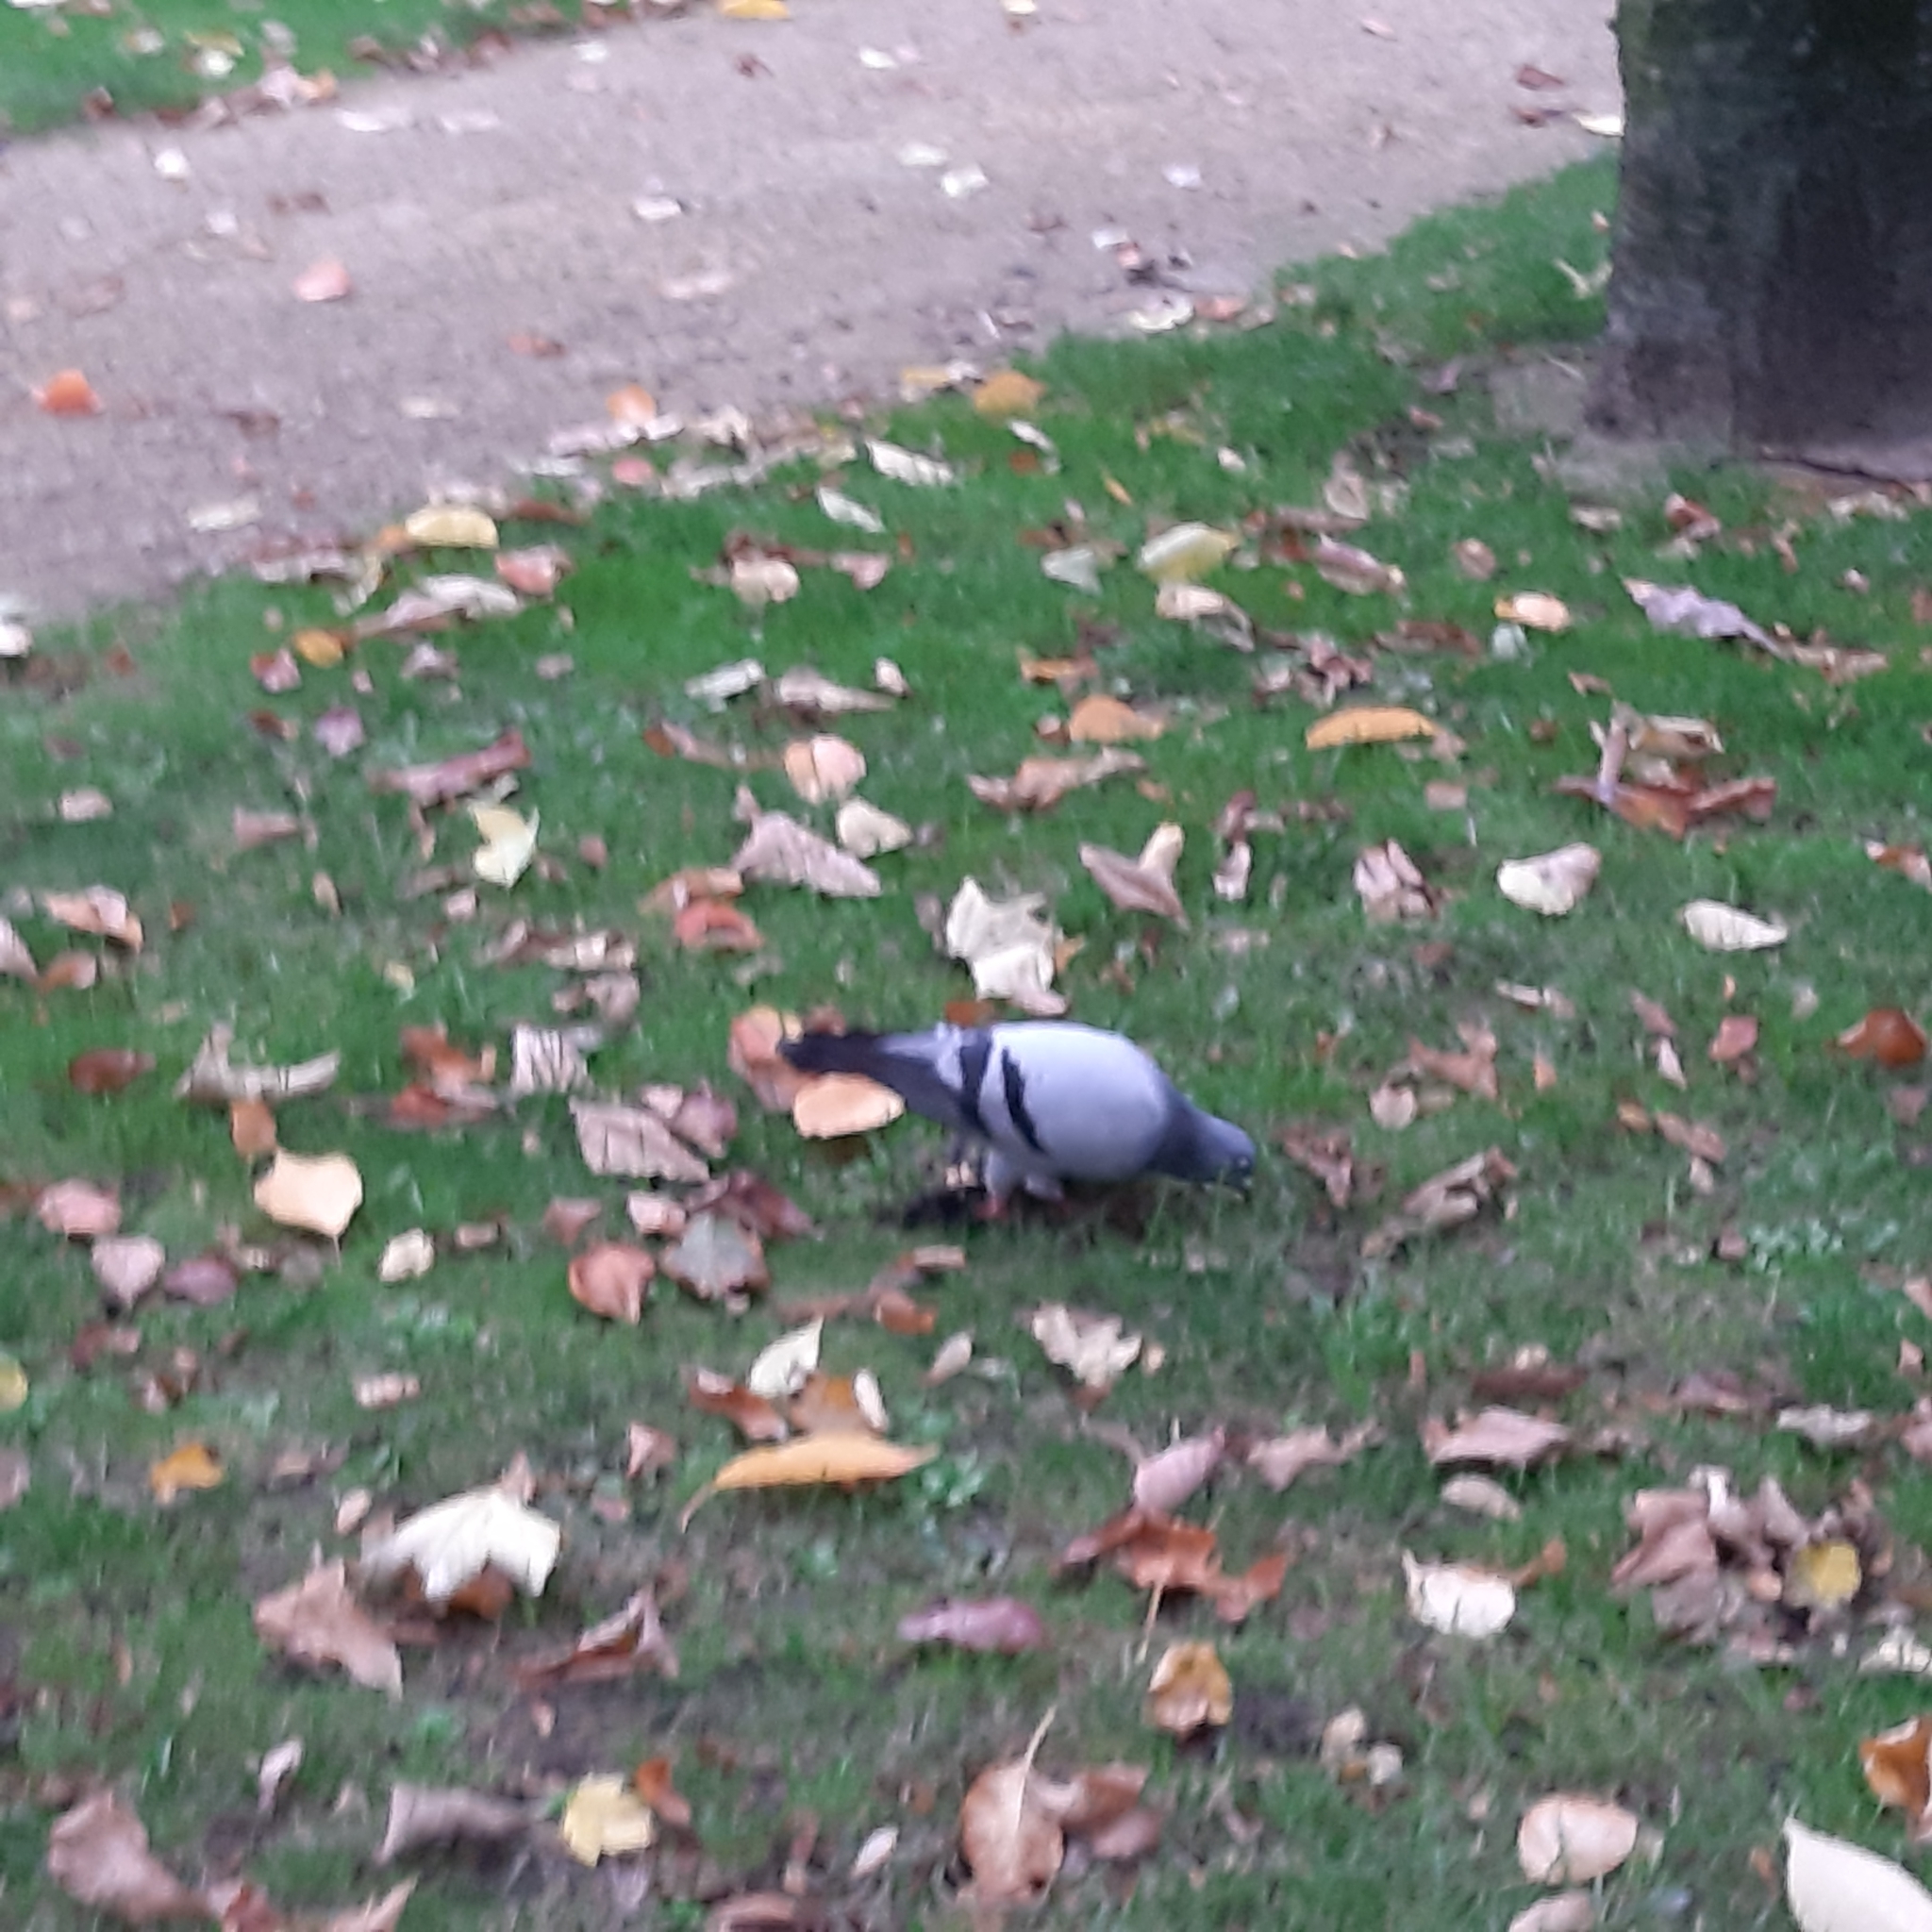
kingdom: Animalia
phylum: Chordata
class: Aves
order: Columbiformes
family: Columbidae
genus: Columba
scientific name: Columba livia
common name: Rock pigeon
